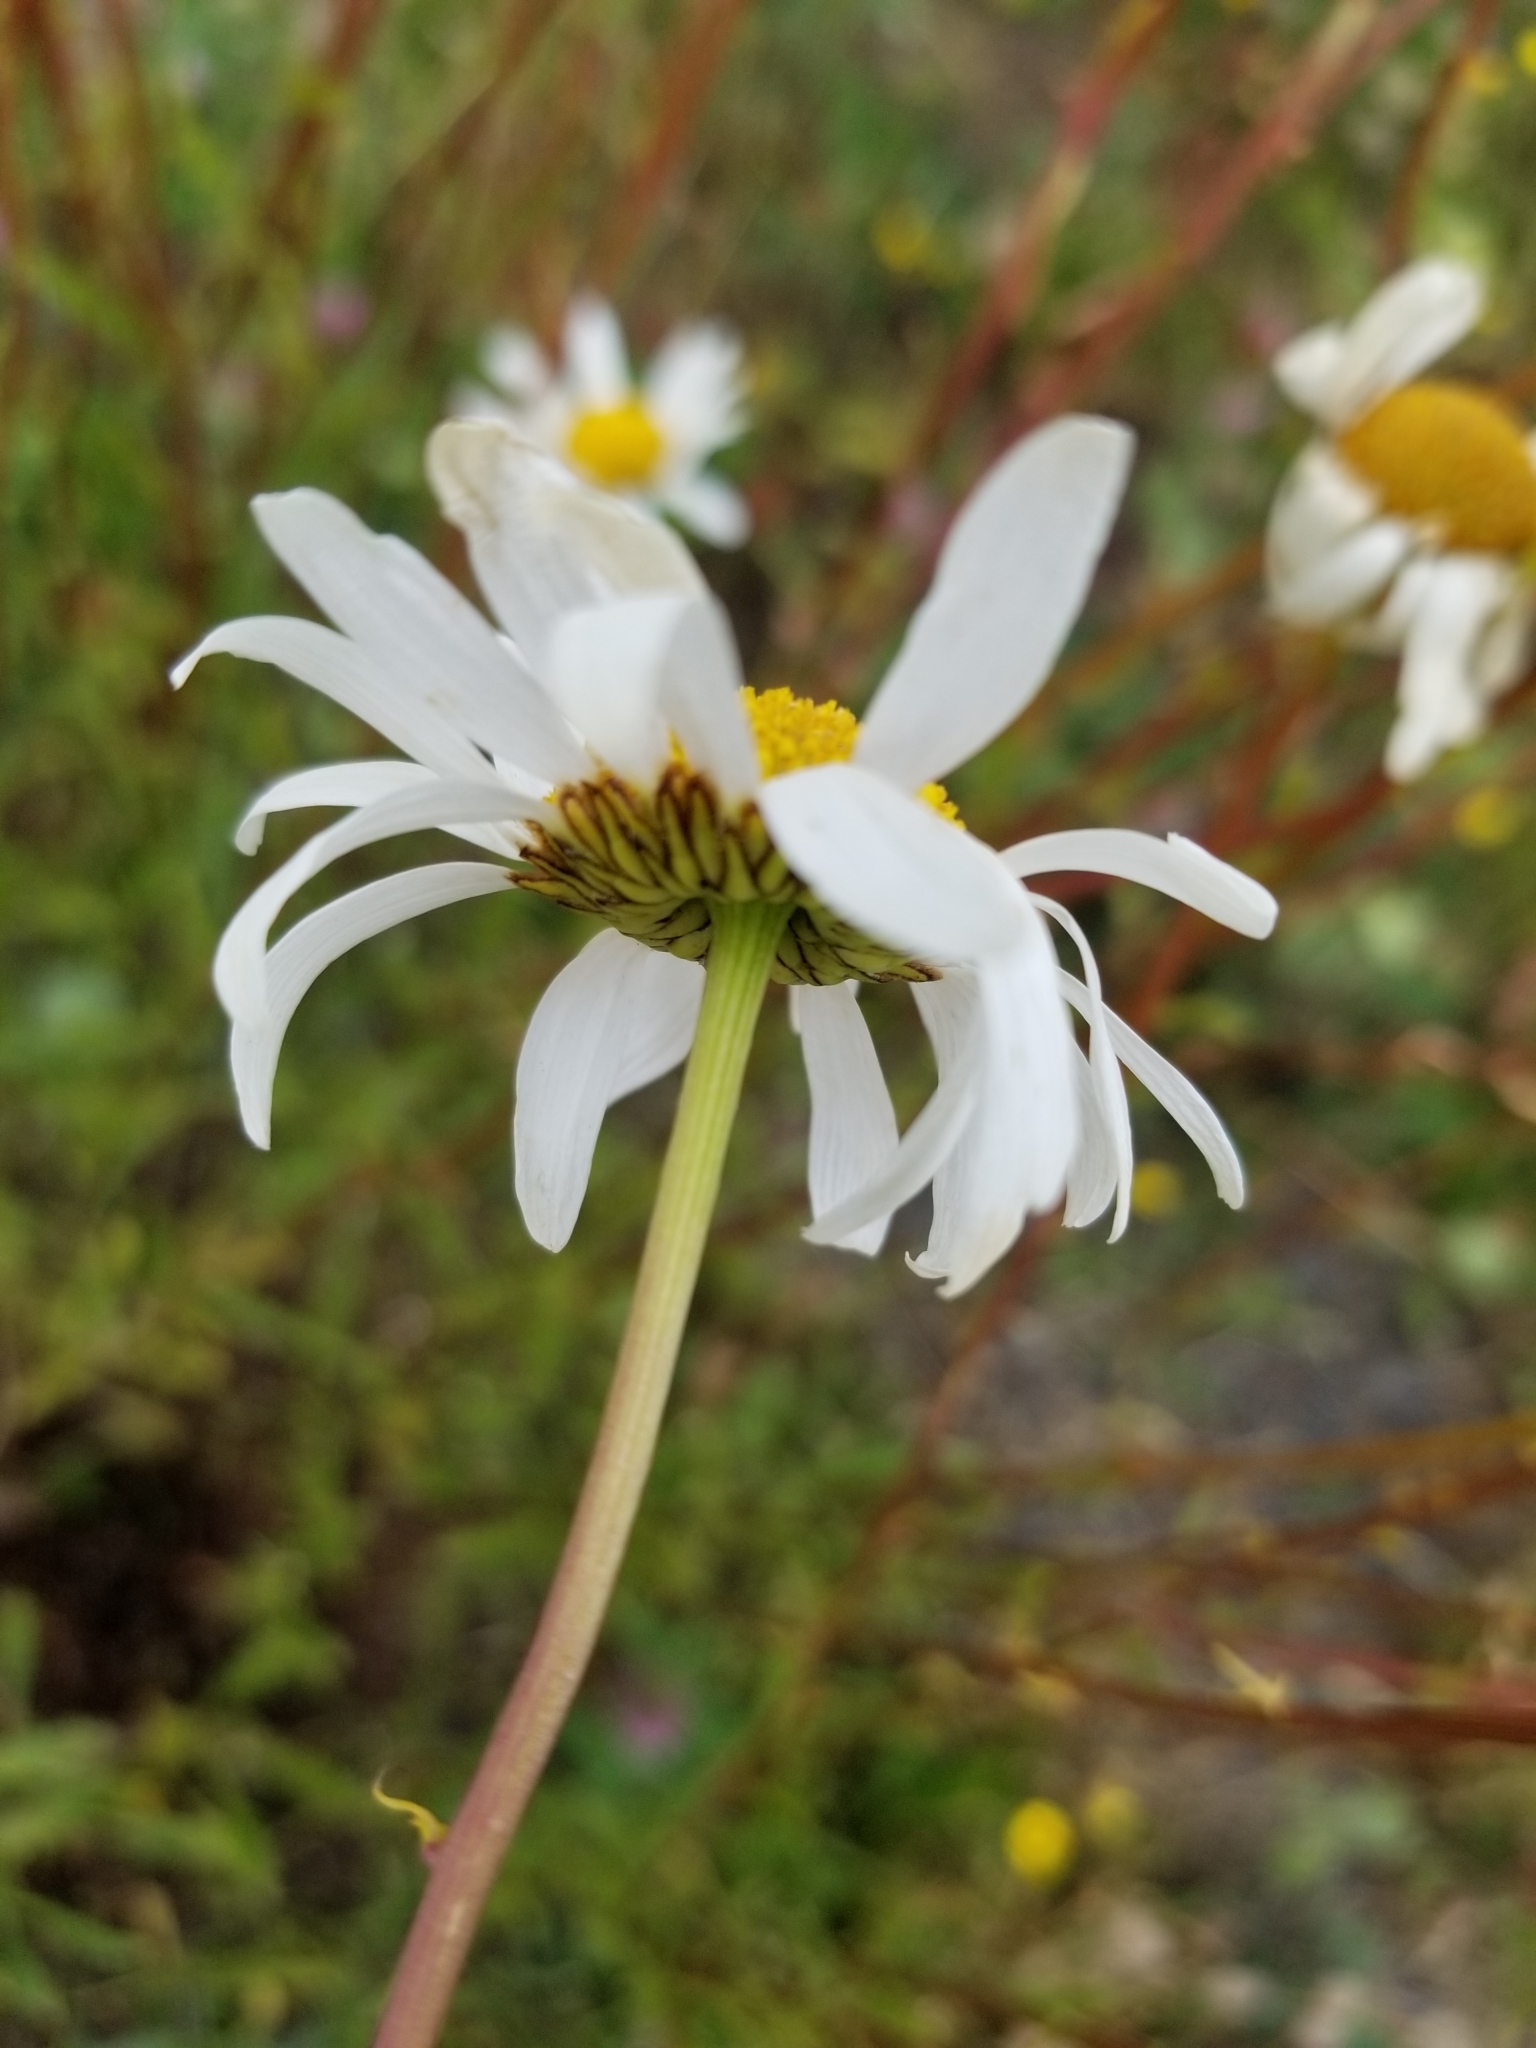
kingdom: Plantae
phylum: Tracheophyta
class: Magnoliopsida
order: Asterales
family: Asteraceae
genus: Leucanthemum
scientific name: Leucanthemum vulgare
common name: Oxeye daisy
